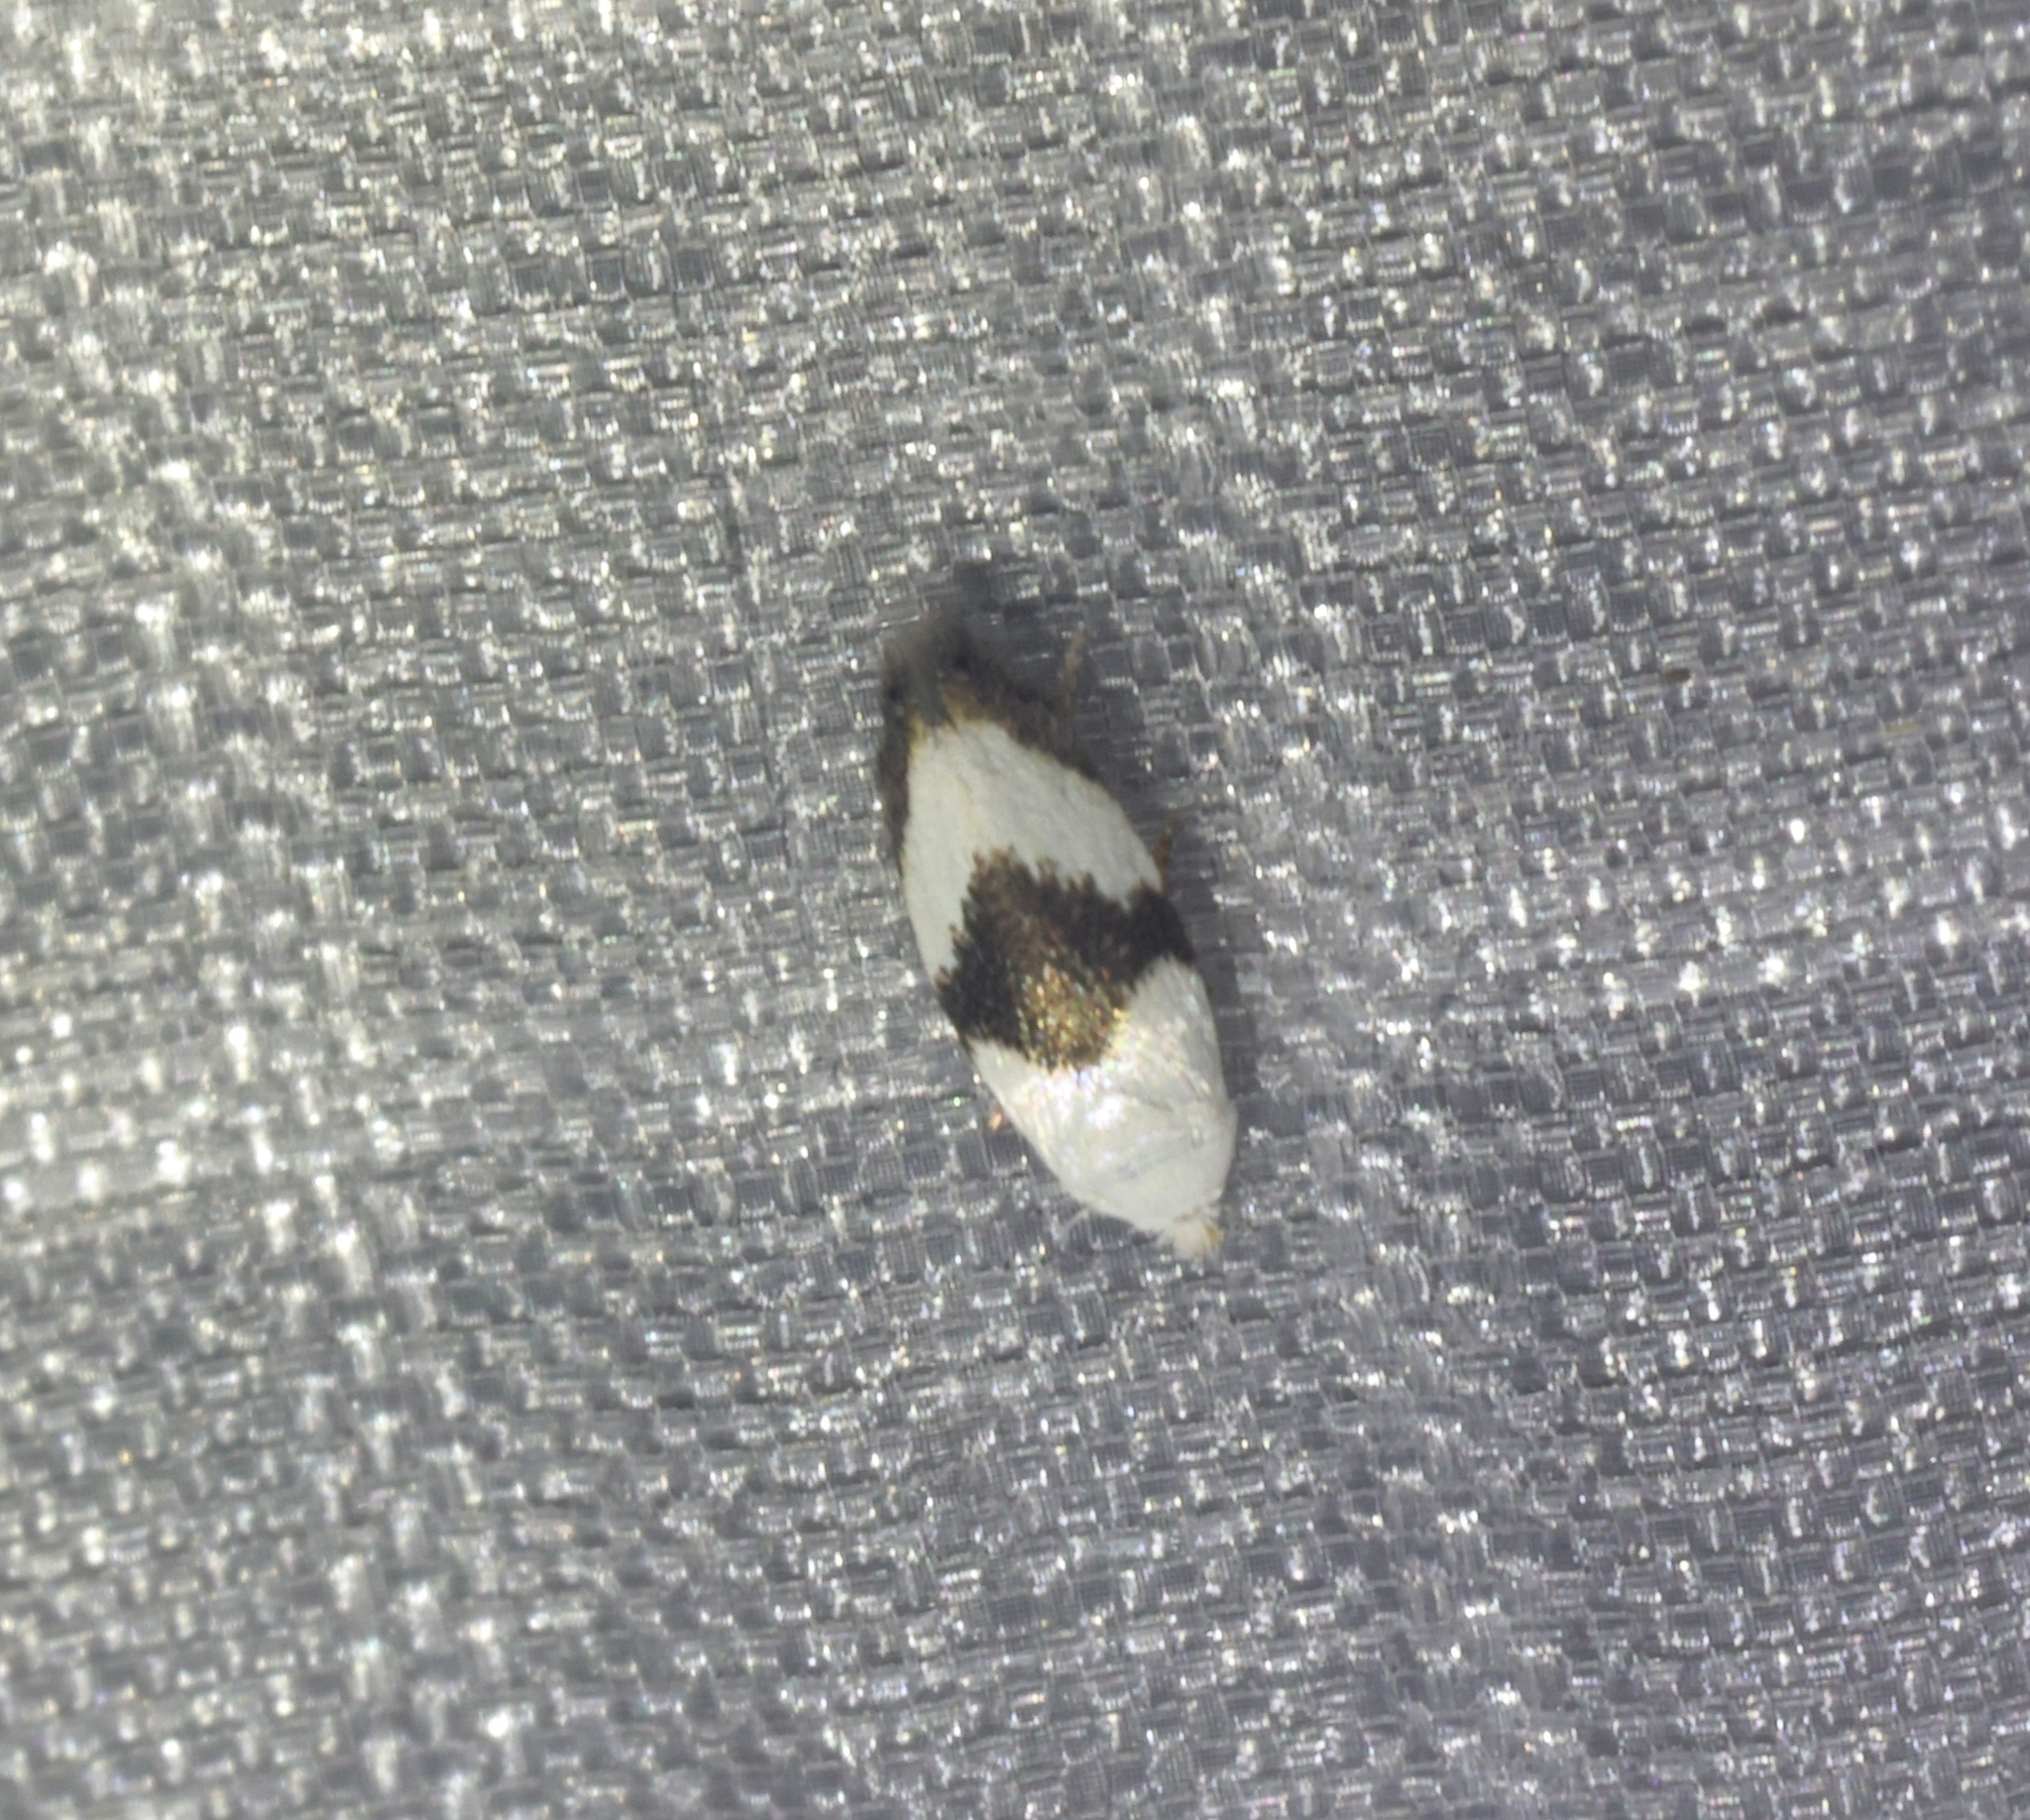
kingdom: Animalia
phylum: Arthropoda
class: Insecta
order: Lepidoptera
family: Opostegidae
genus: Pseudopostega
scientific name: Pseudopostega zelopa
